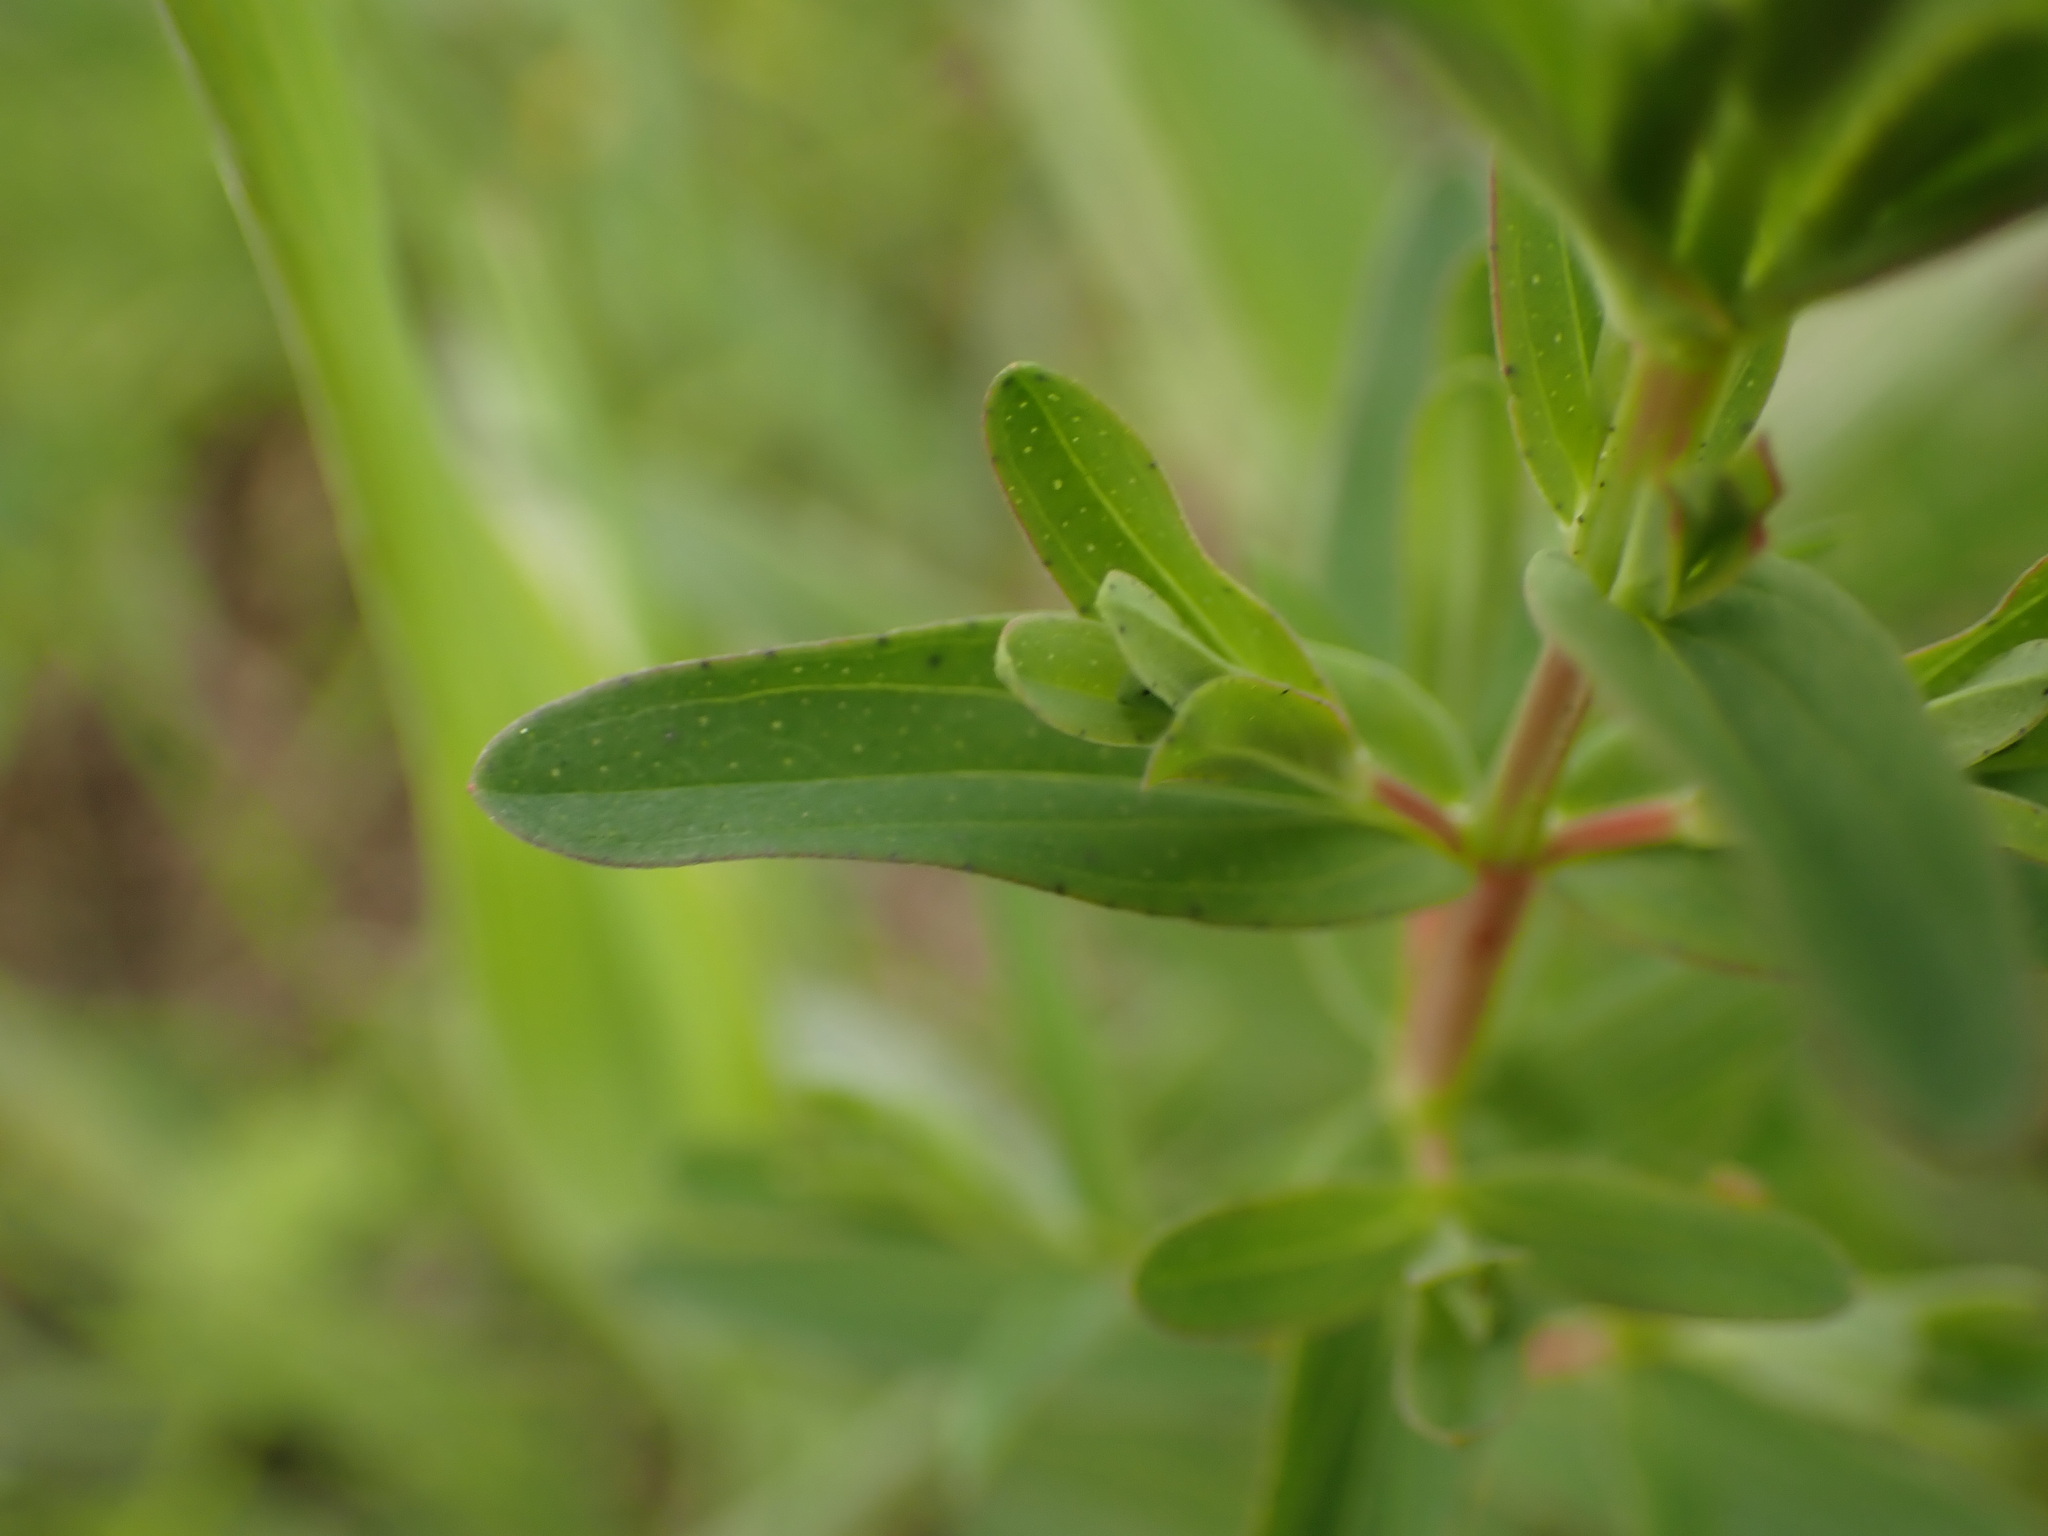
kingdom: Plantae
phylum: Tracheophyta
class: Magnoliopsida
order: Malpighiales
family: Hypericaceae
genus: Hypericum
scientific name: Hypericum perforatum
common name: Common st. johnswort
